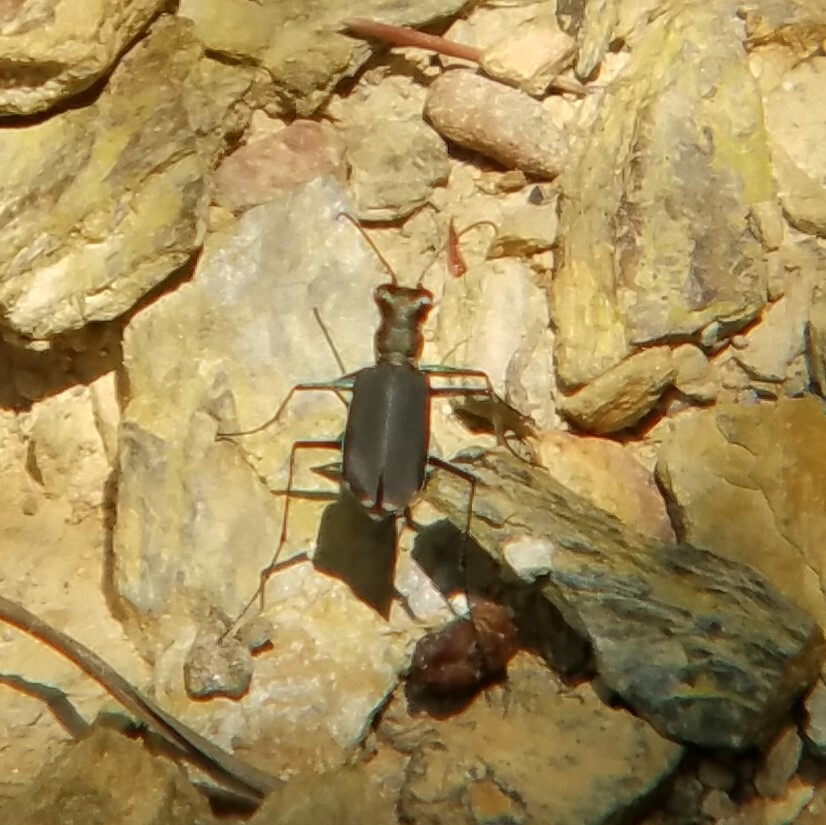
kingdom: Animalia
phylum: Arthropoda
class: Insecta
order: Coleoptera
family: Carabidae
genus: Cicindela
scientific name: Cicindela rufiventris
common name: Eastern red-bellied tiger beetle
